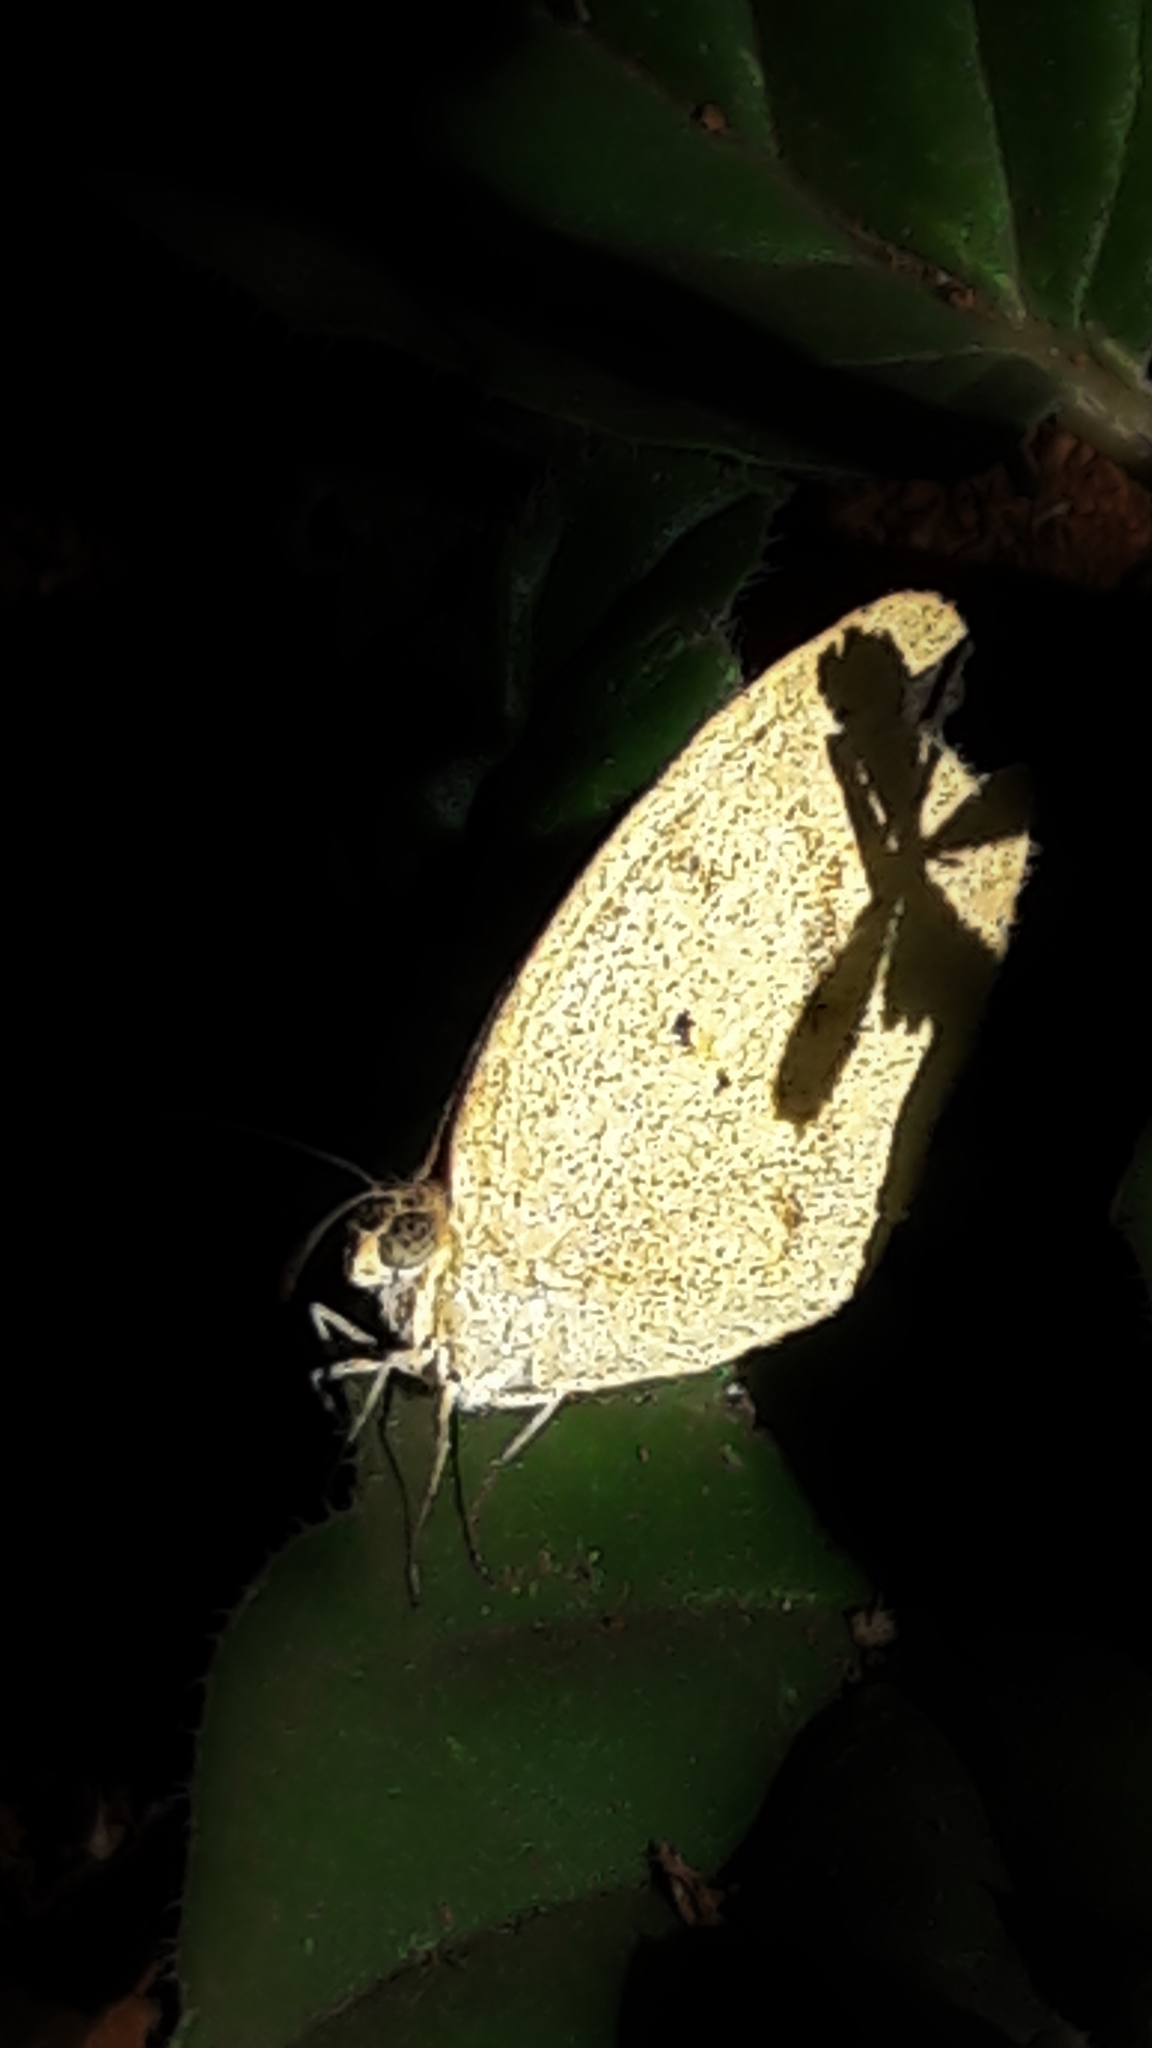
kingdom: Animalia
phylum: Arthropoda
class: Insecta
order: Lepidoptera
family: Pieridae
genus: Eurema
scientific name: Eurema elathea
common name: Banded yellow
